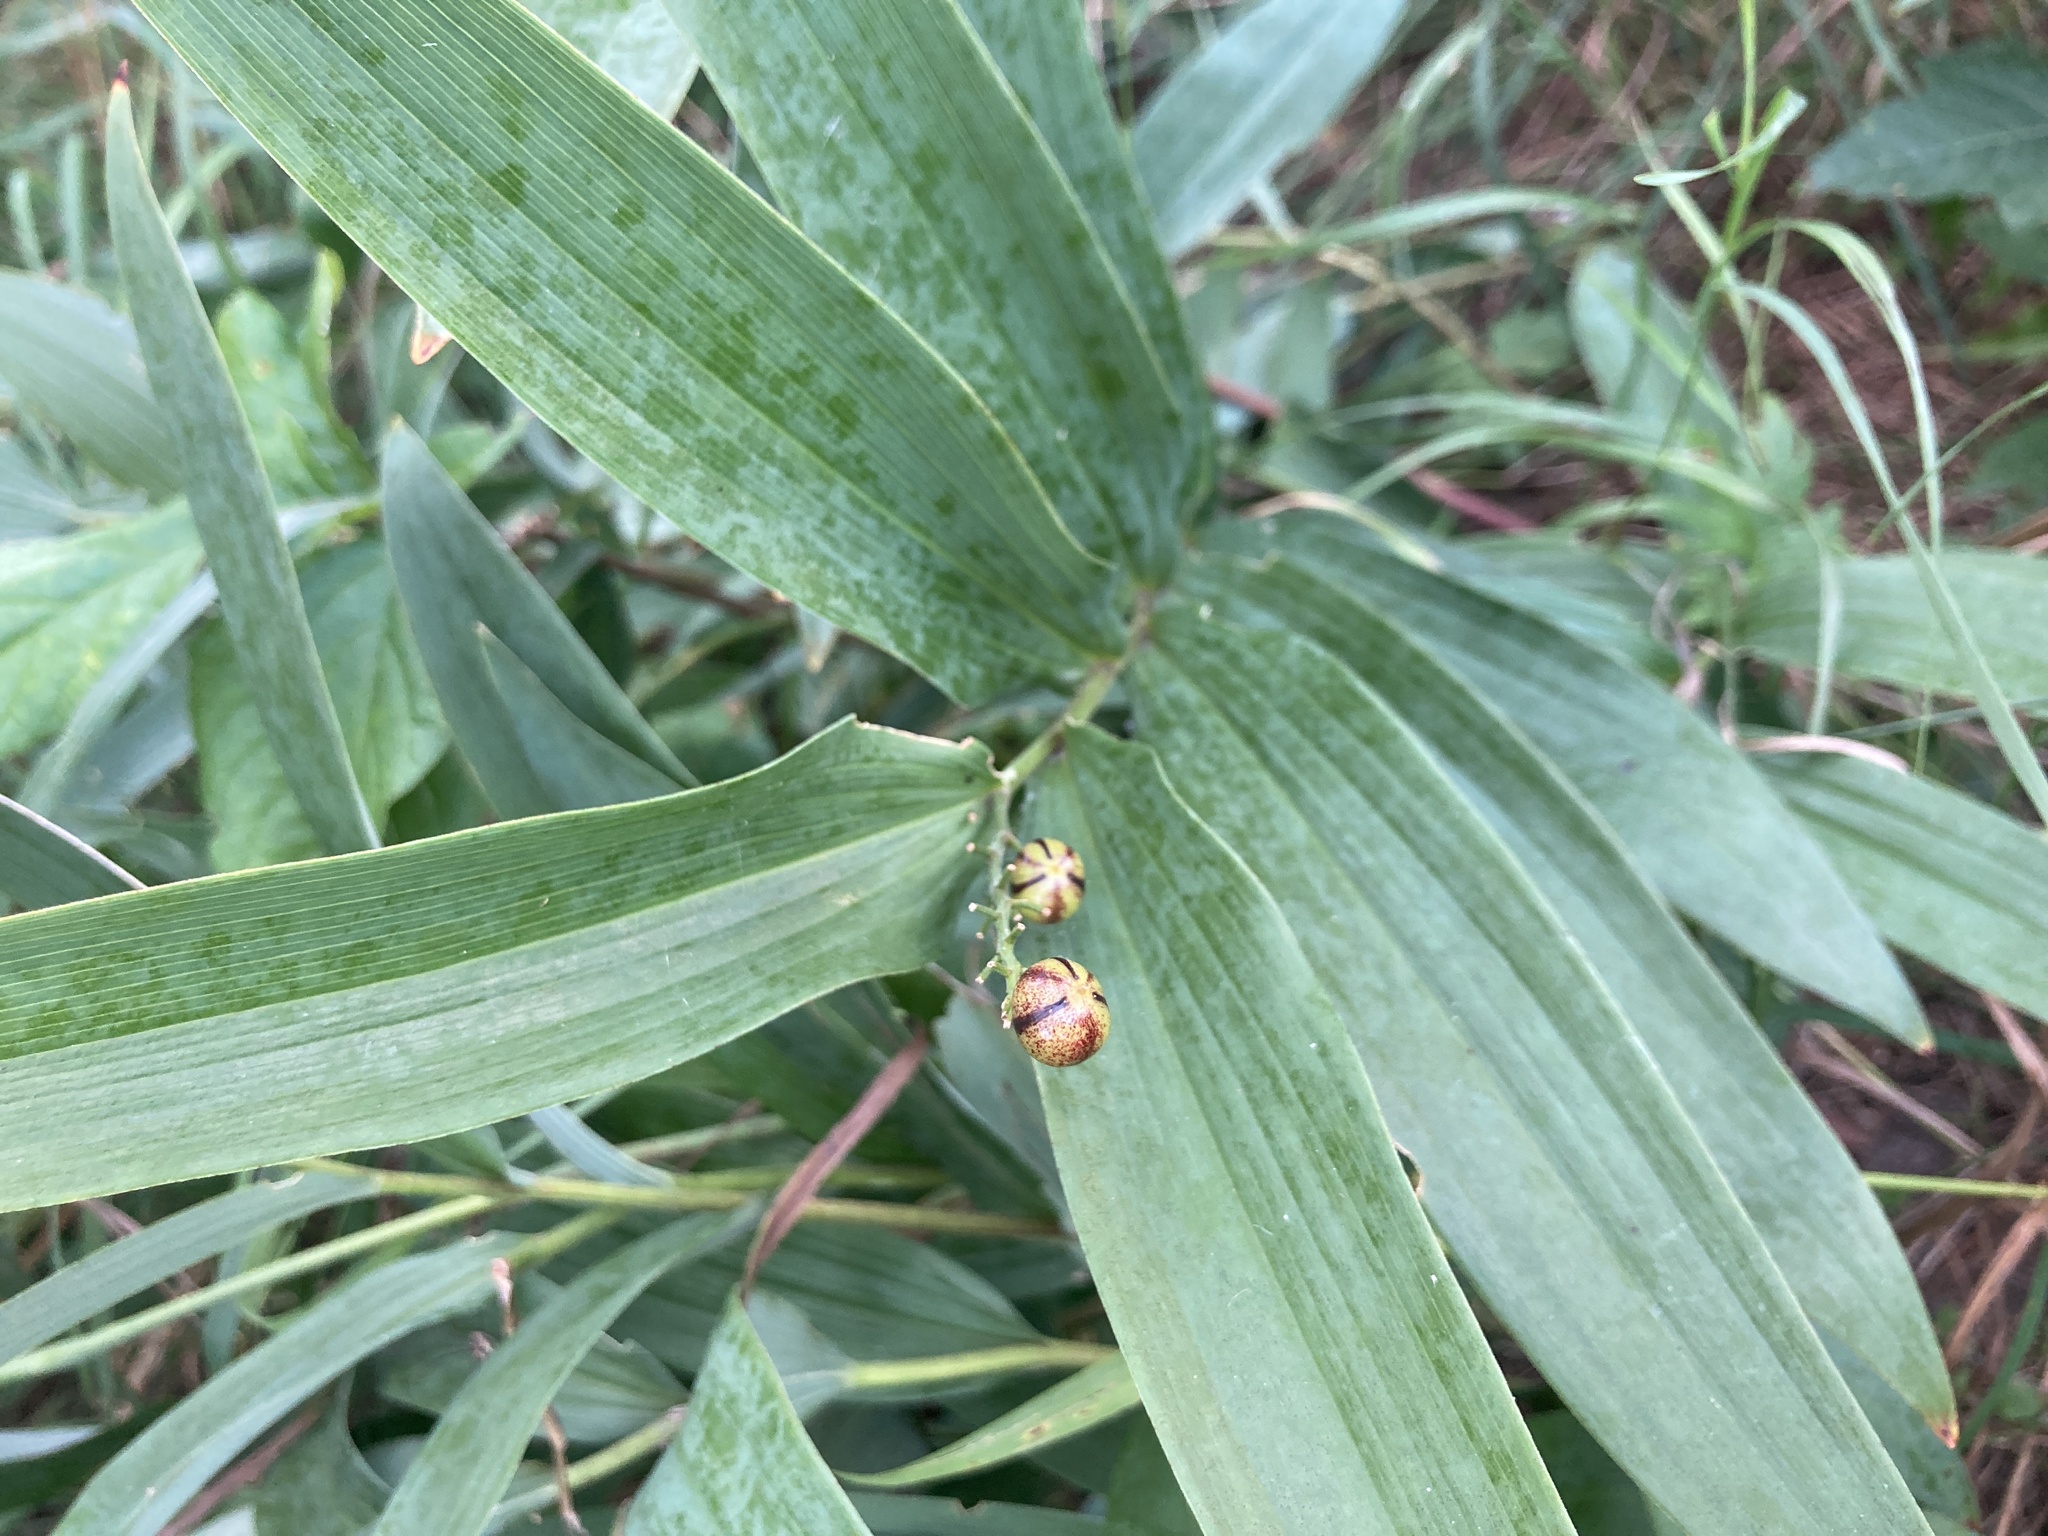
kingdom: Plantae
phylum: Tracheophyta
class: Liliopsida
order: Asparagales
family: Asparagaceae
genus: Maianthemum
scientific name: Maianthemum stellatum
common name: Little false solomon's seal
